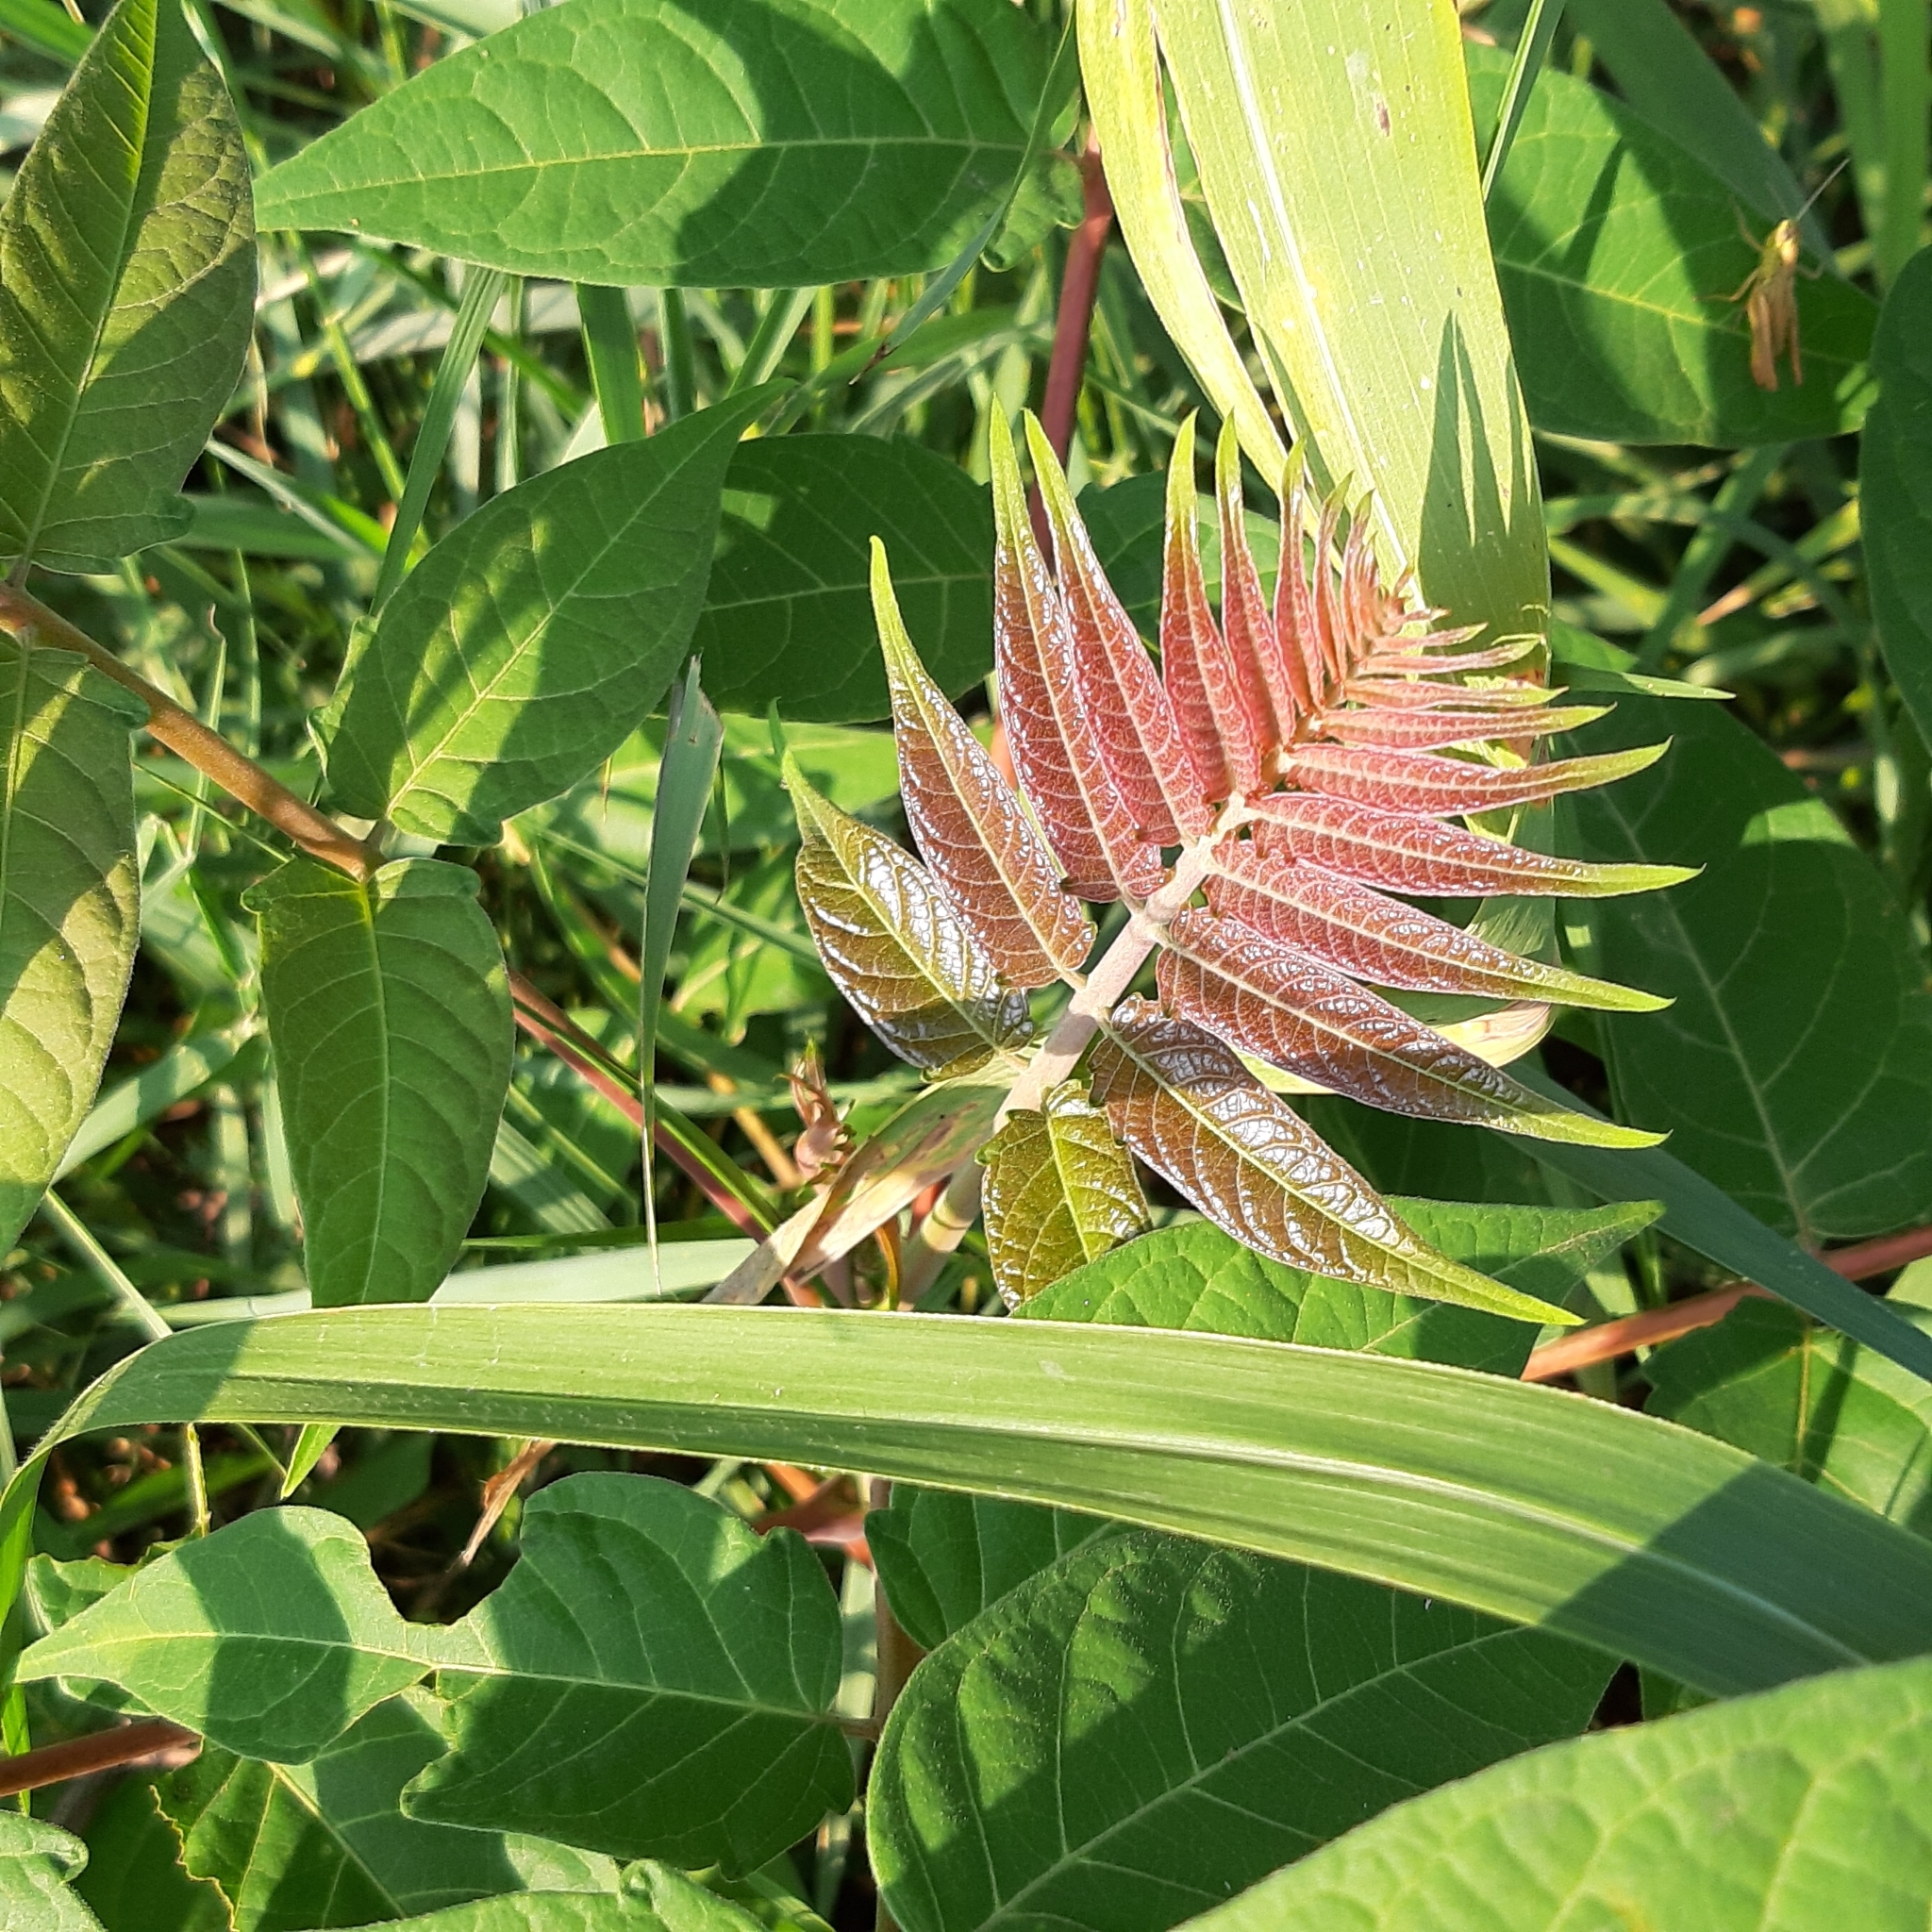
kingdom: Plantae
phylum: Tracheophyta
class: Magnoliopsida
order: Sapindales
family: Simaroubaceae
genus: Ailanthus
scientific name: Ailanthus altissima
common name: Tree-of-heaven
